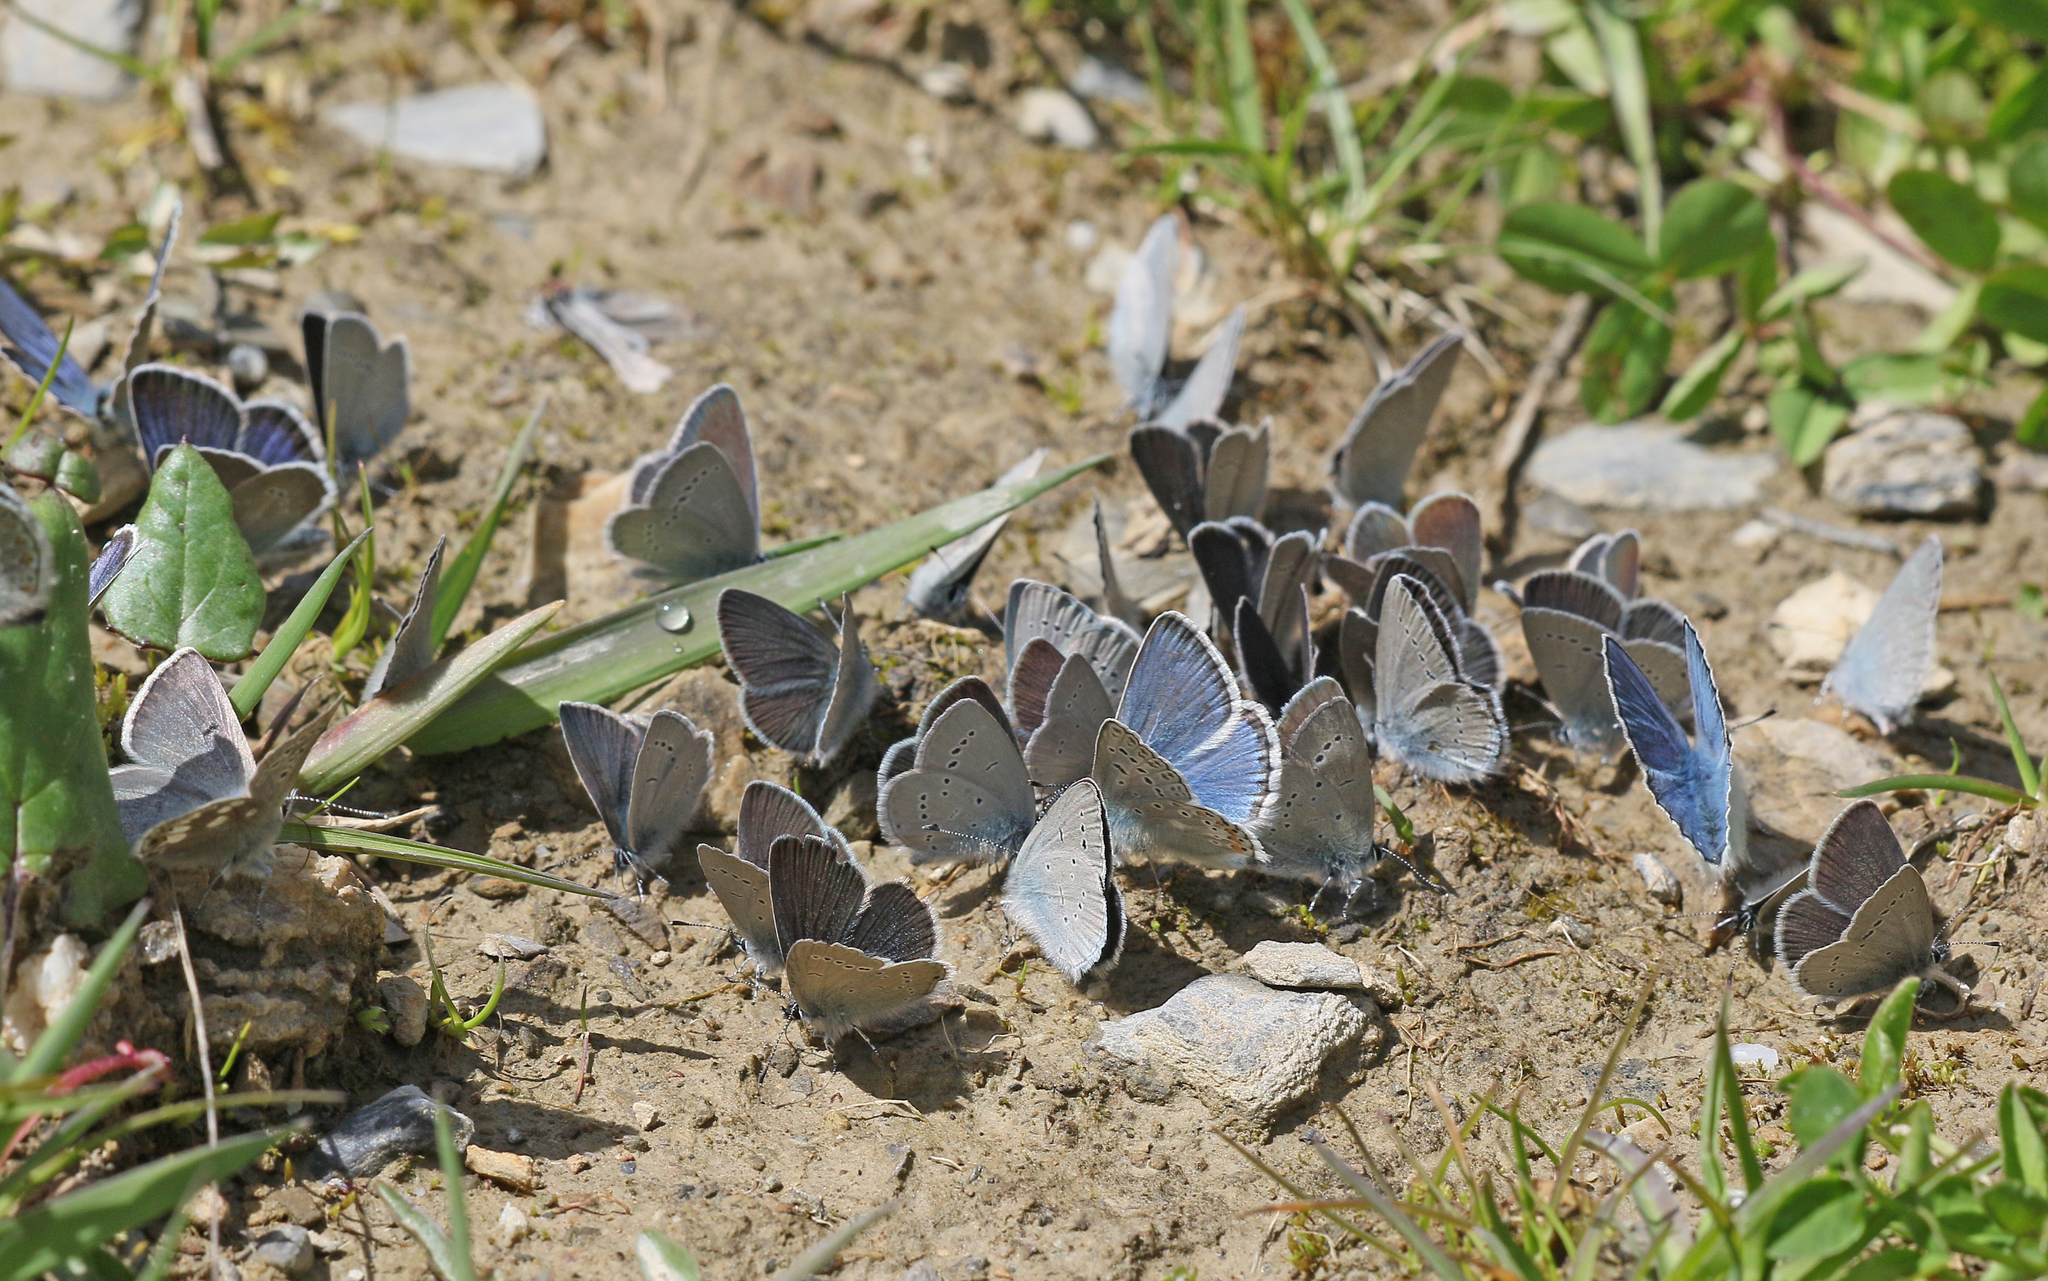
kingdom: Animalia
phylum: Arthropoda
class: Insecta
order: Lepidoptera
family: Lycaenidae
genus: Cupido
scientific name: Cupido minimus
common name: Small blue
